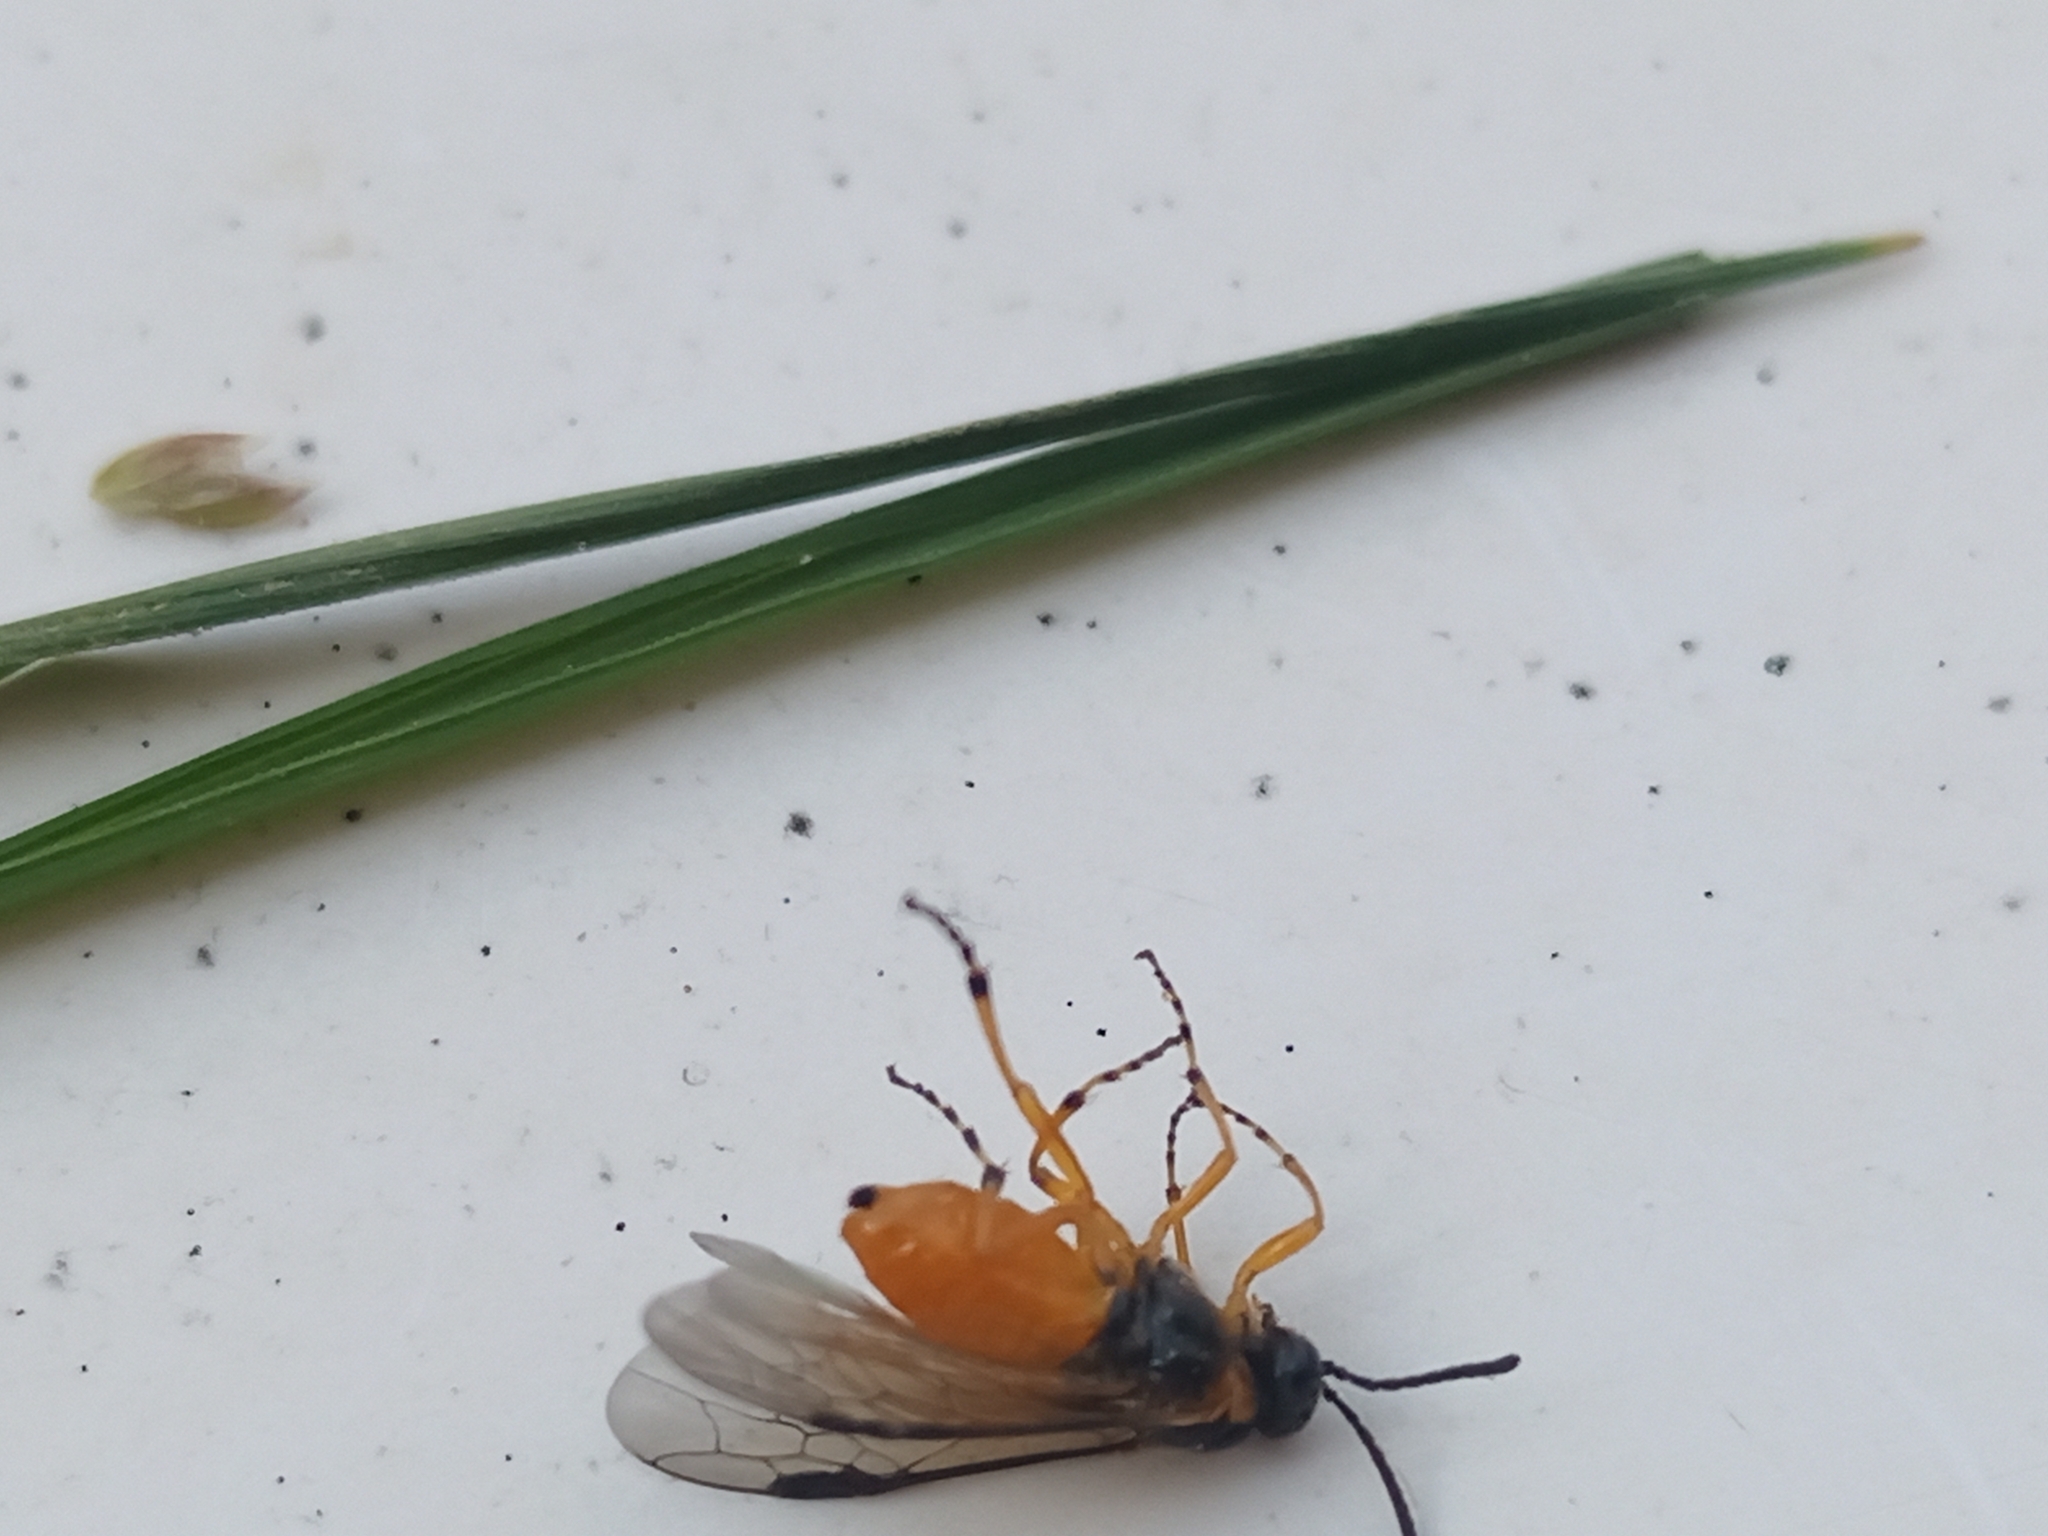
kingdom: Animalia
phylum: Arthropoda
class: Insecta
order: Hymenoptera
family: Tenthredinidae
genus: Athalia
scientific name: Athalia cordata
